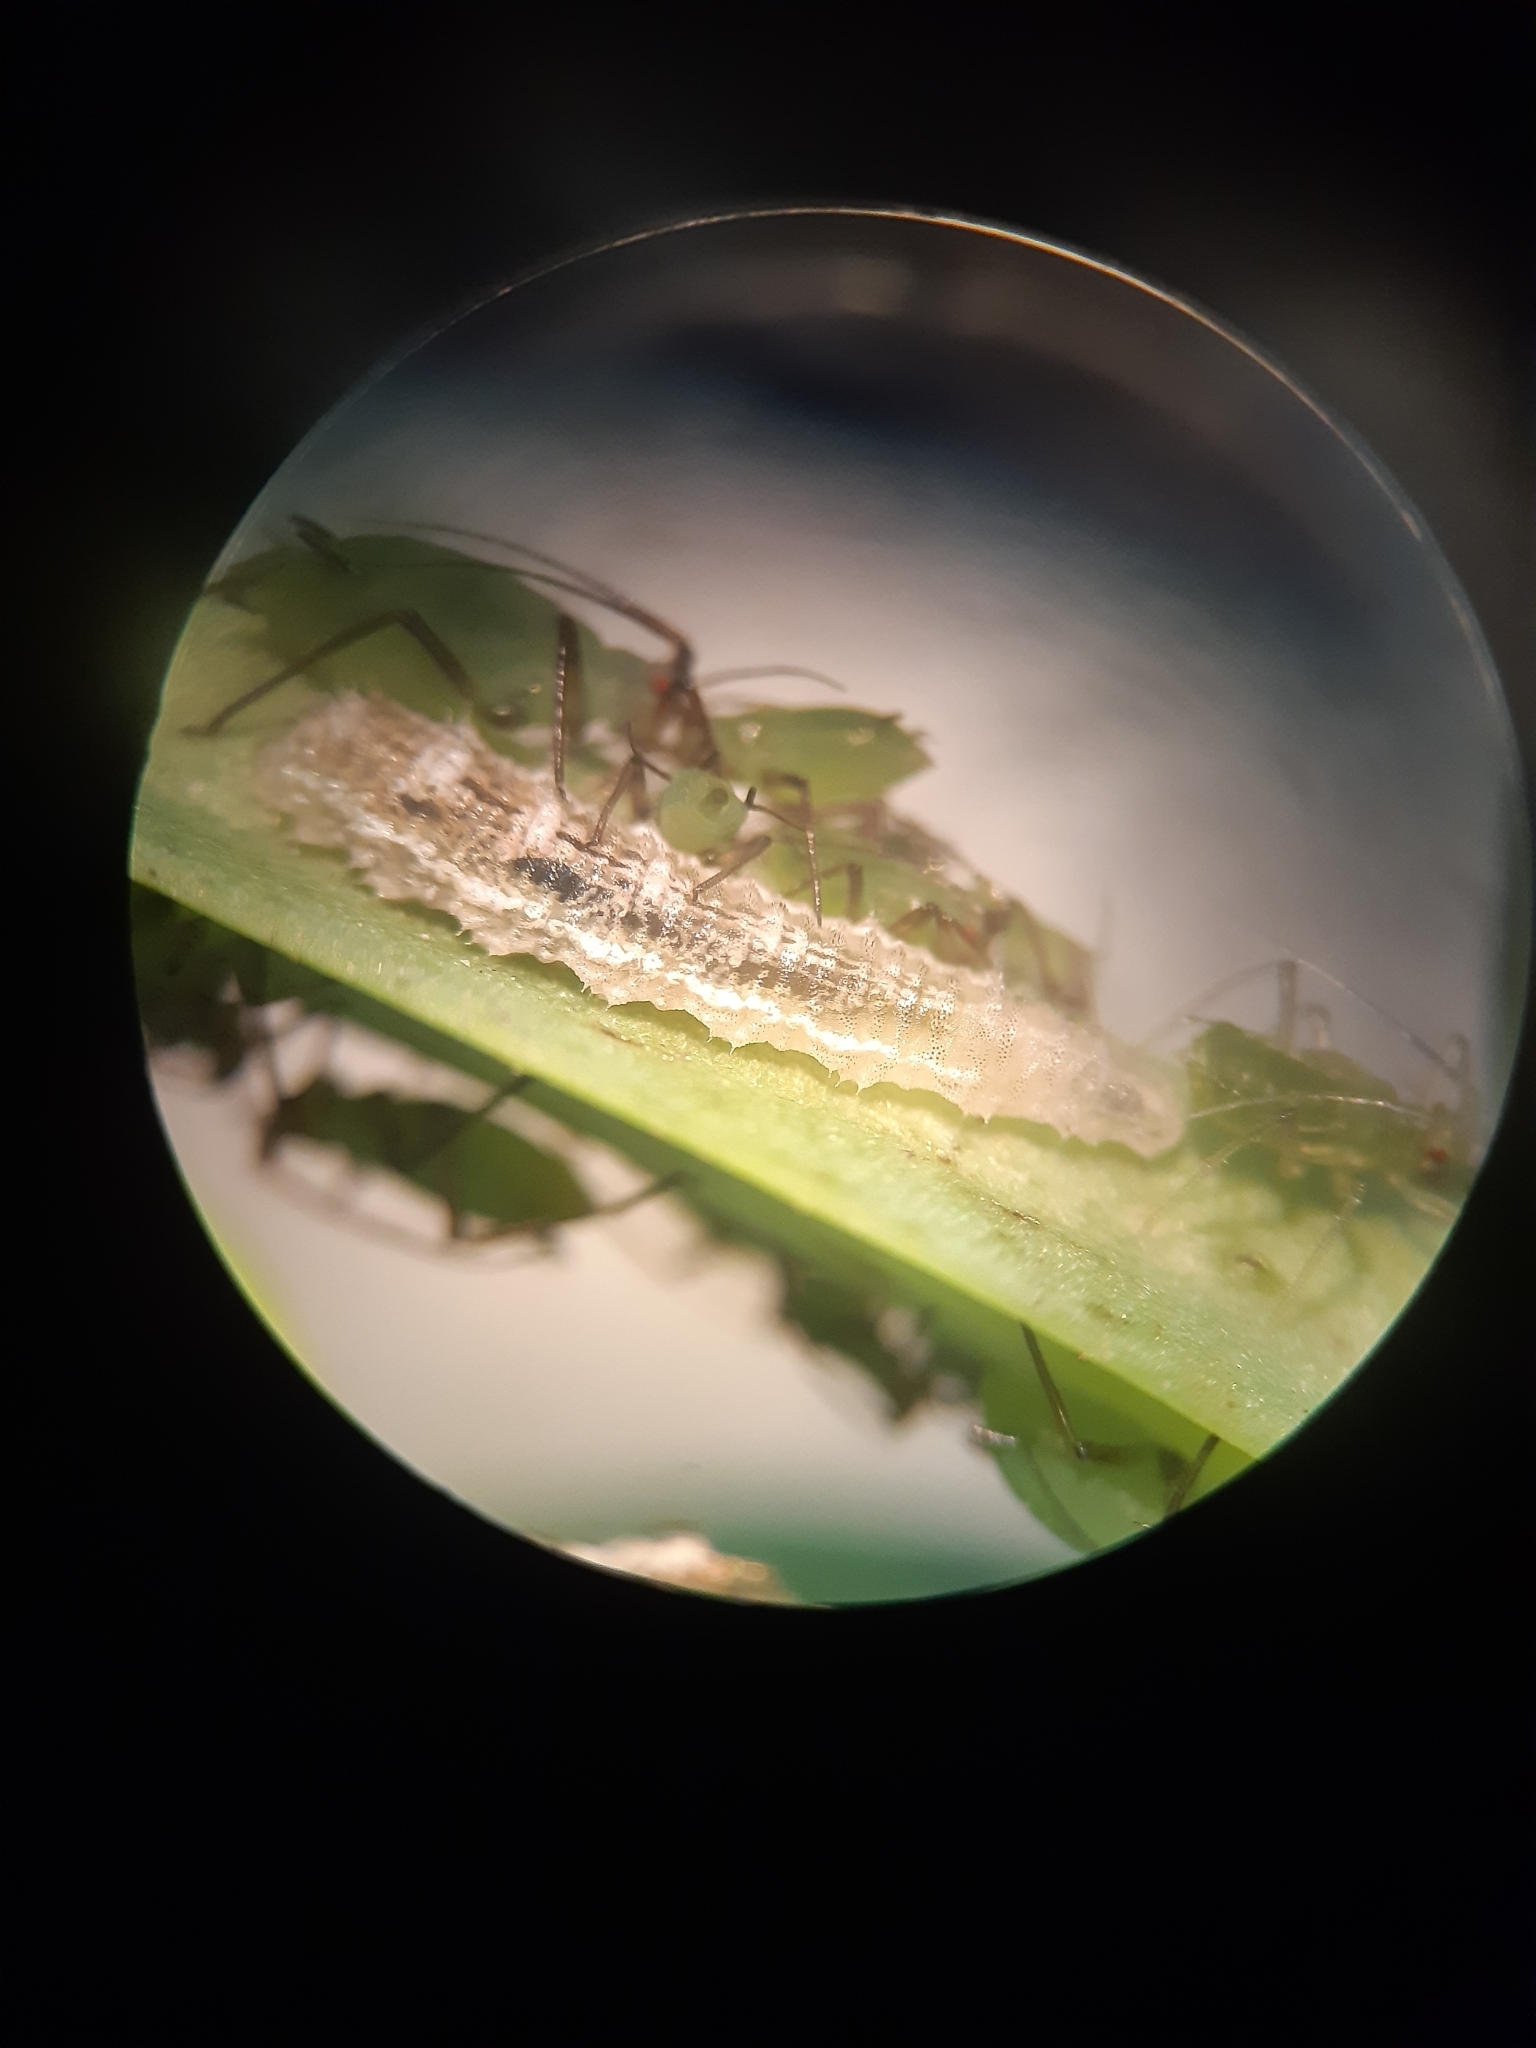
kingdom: Animalia
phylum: Arthropoda
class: Insecta
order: Diptera
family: Syrphidae
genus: Eupeodes
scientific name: Eupeodes
